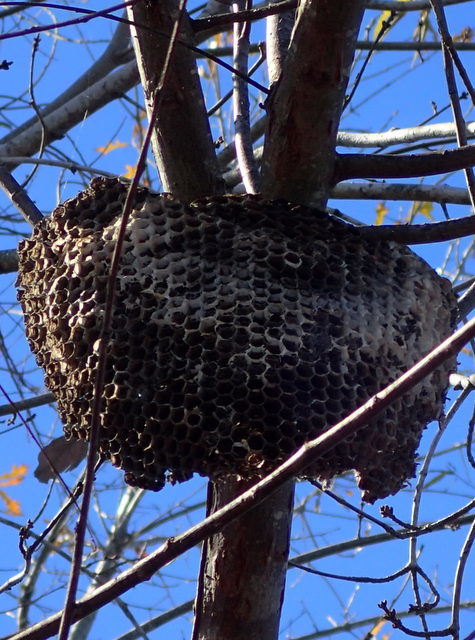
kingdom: Animalia
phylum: Arthropoda
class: Insecta
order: Hymenoptera
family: Eumenidae
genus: Polistes
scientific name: Polistes annularis
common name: Ringed paper wasp
